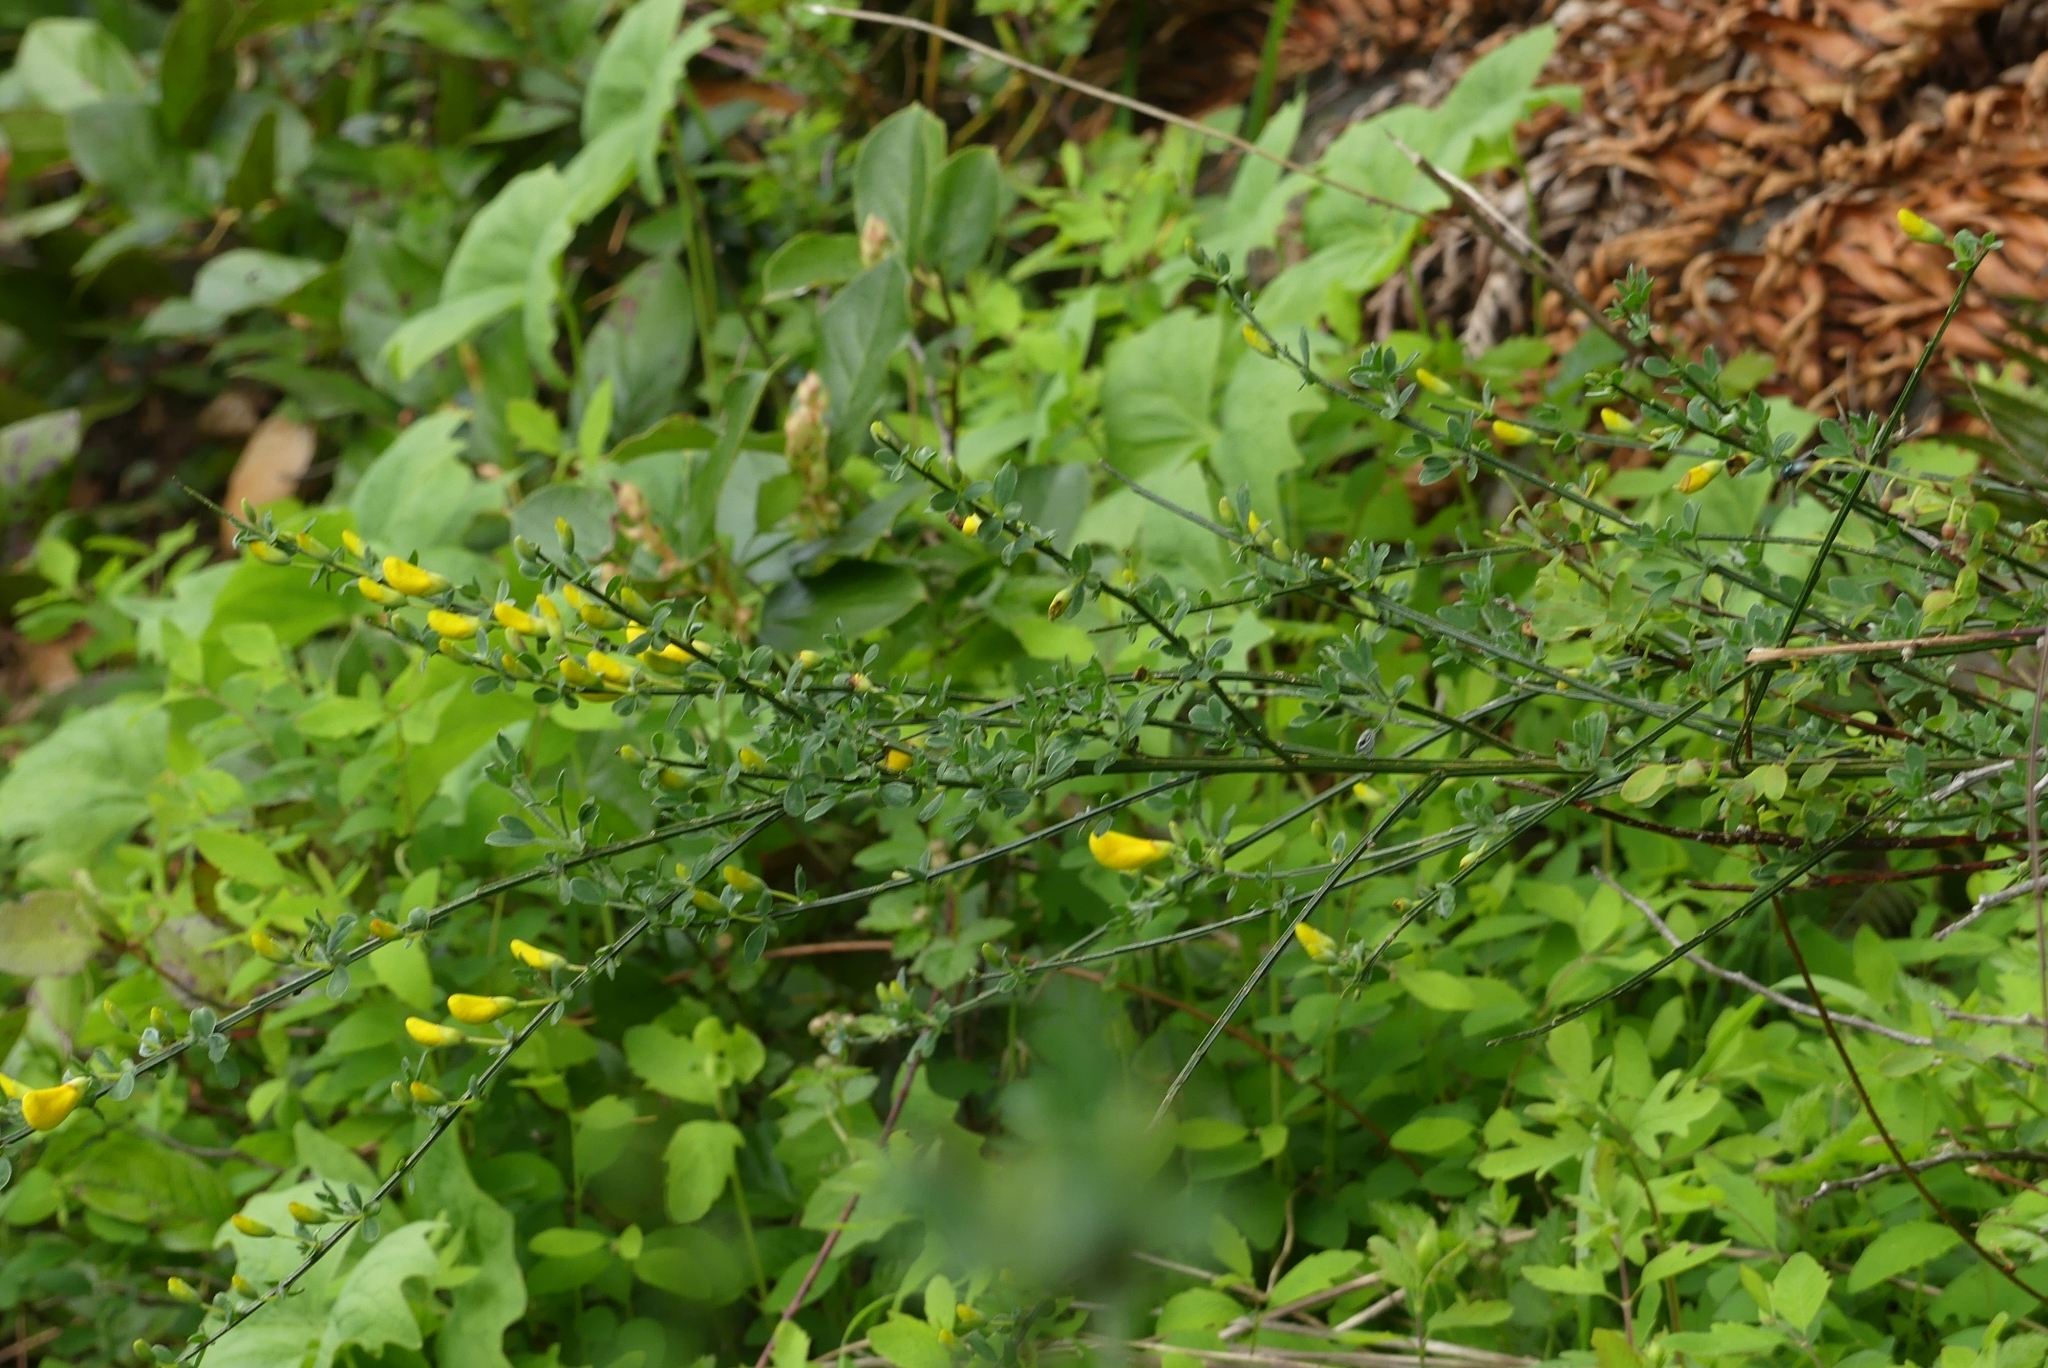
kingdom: Plantae
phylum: Tracheophyta
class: Magnoliopsida
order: Fabales
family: Fabaceae
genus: Cytisus
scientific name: Cytisus scoparius
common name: Scotch broom
